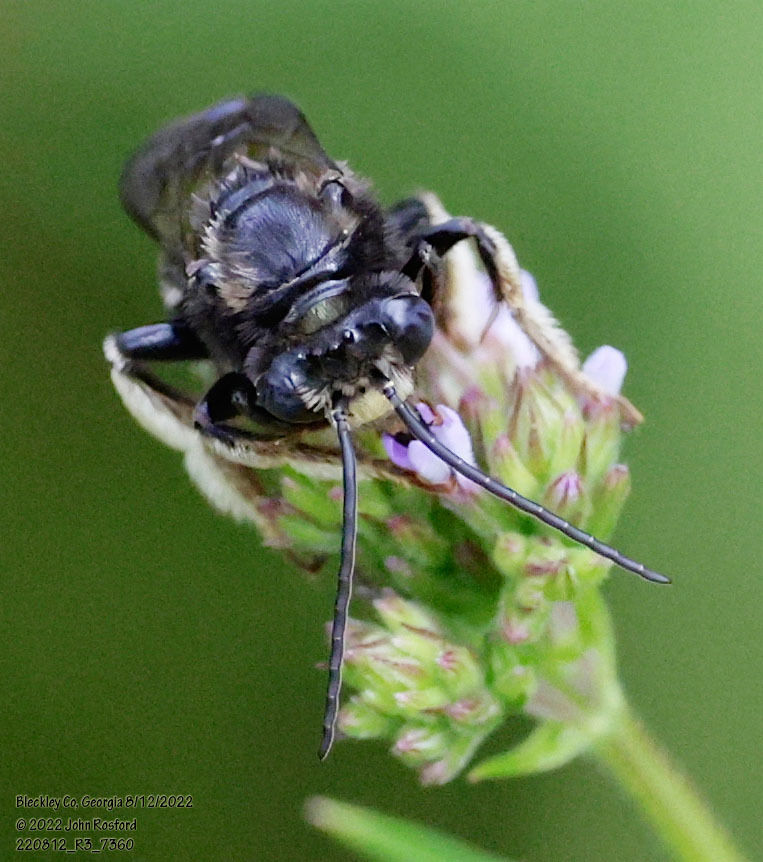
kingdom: Animalia
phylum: Arthropoda
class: Insecta
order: Hymenoptera
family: Apidae
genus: Melissodes
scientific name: Melissodes bimaculatus
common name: Two-spotted long-horned bee
